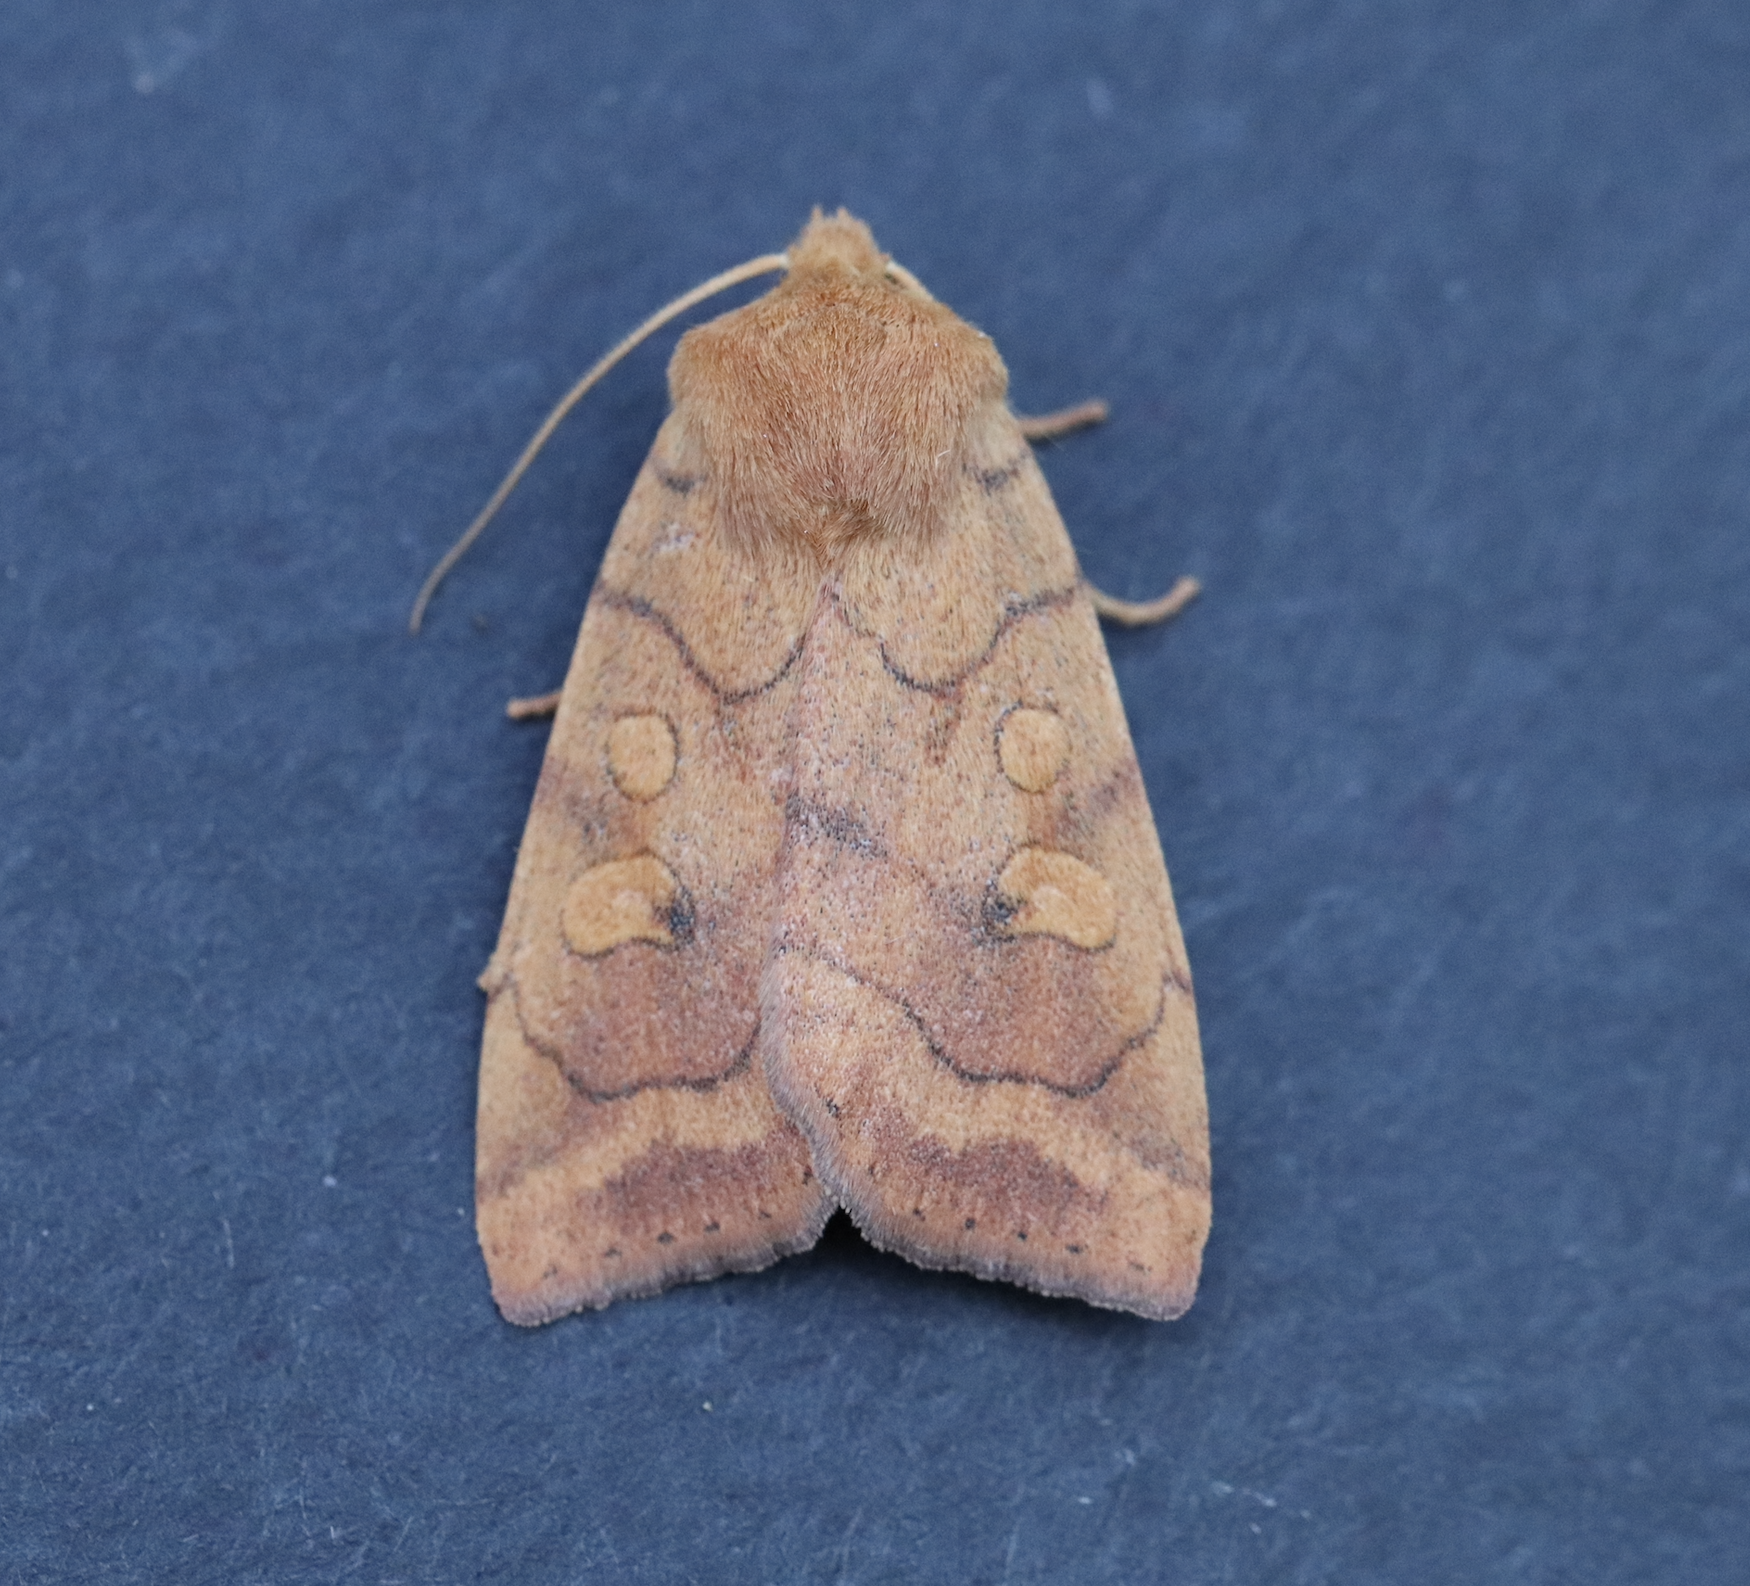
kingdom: Animalia
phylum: Arthropoda
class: Insecta
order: Lepidoptera
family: Noctuidae
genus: Enargia
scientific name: Enargia infumata
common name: Smoked sallow
